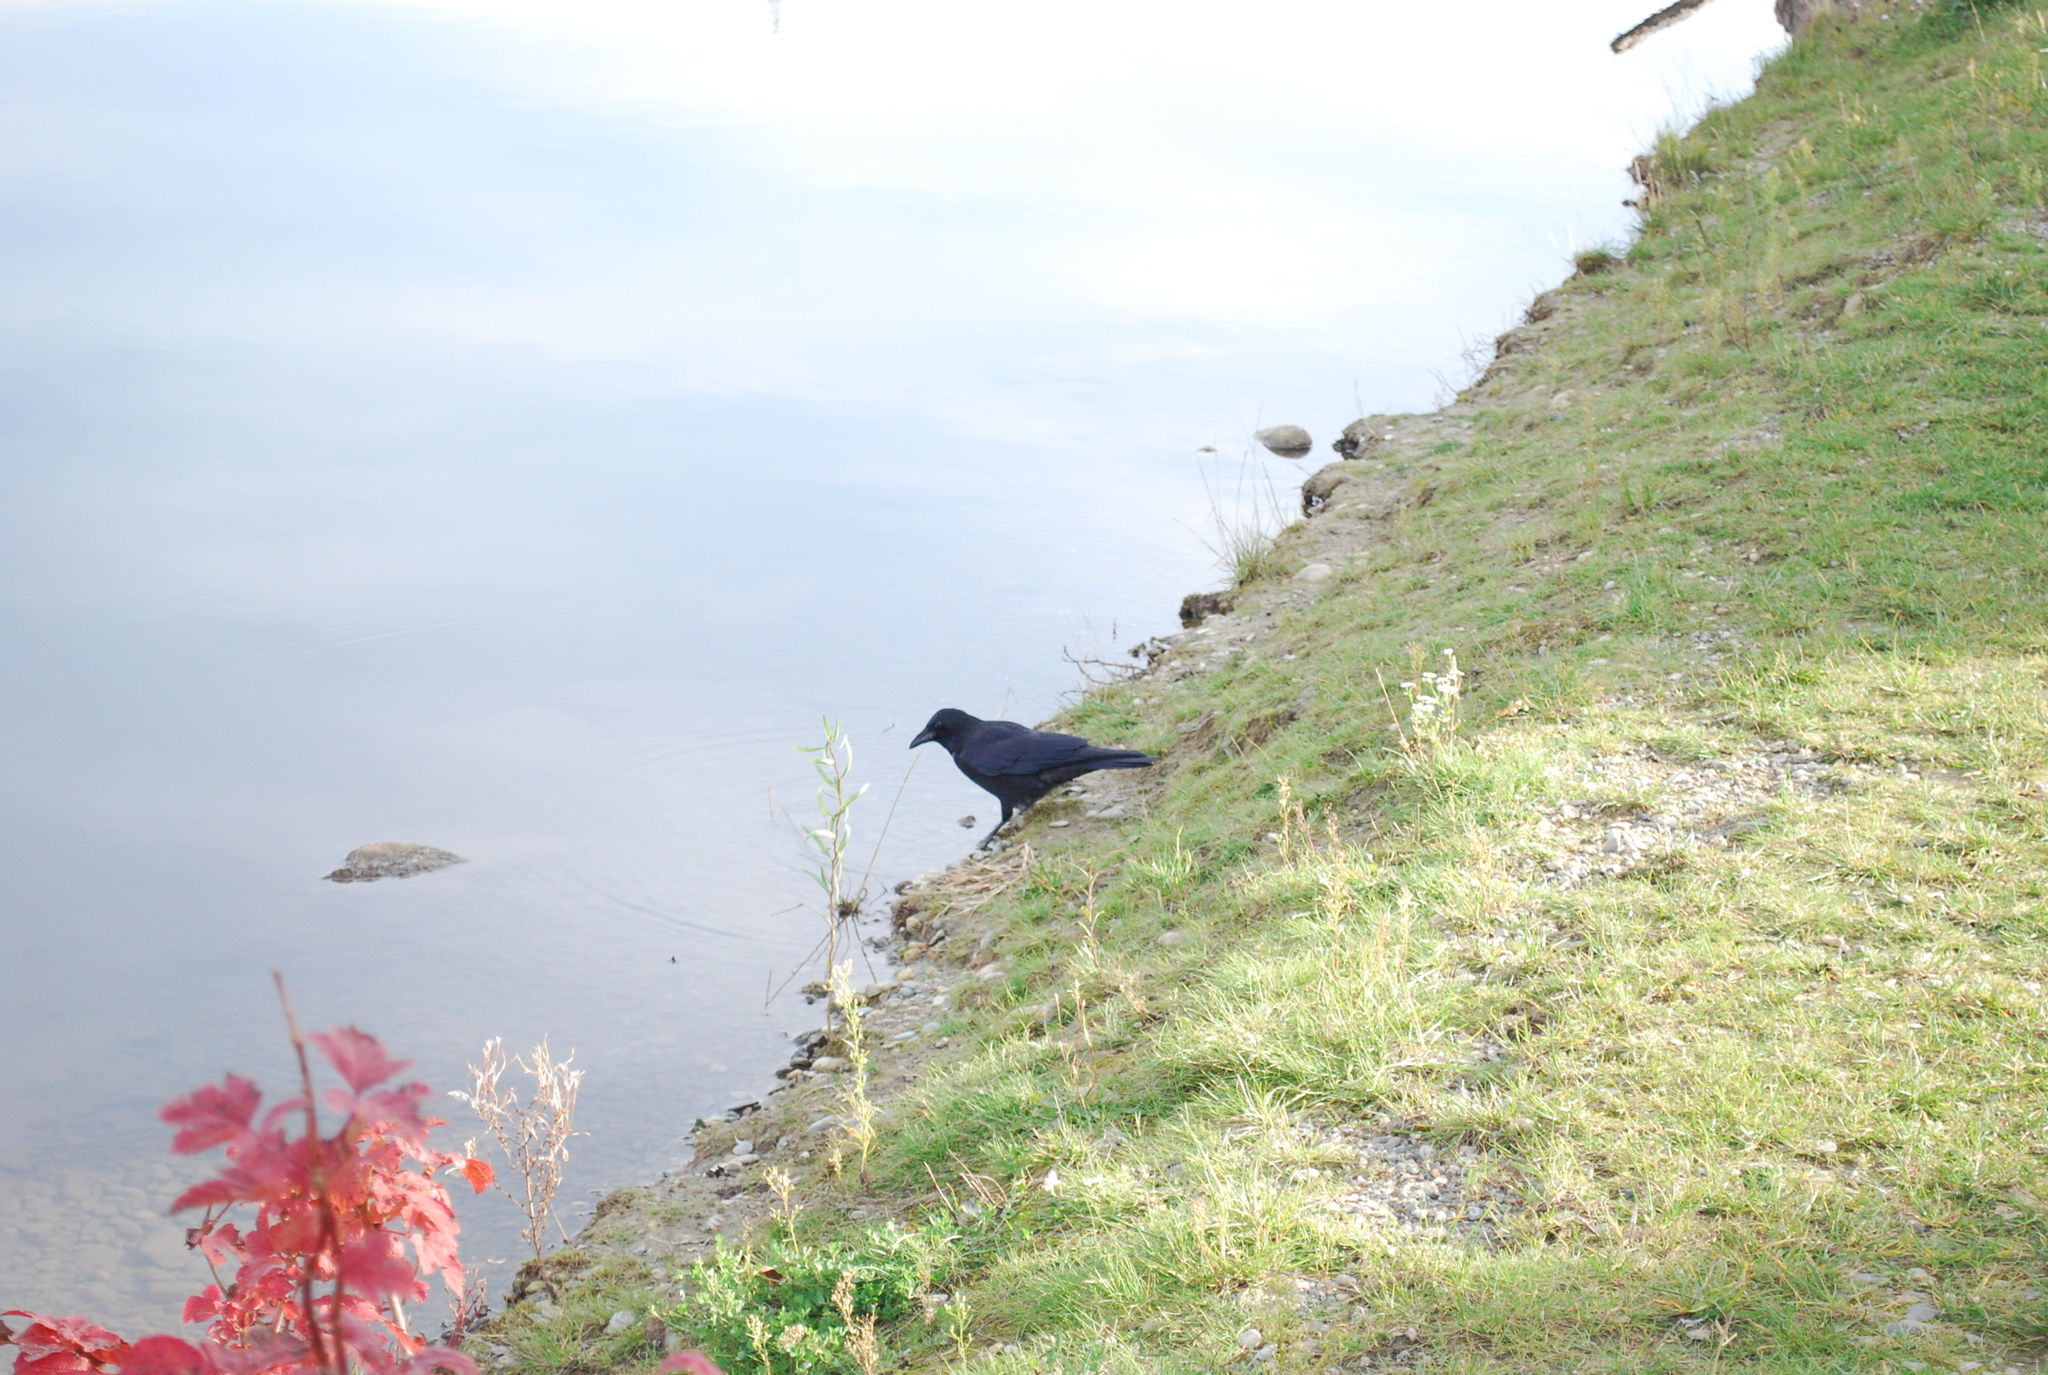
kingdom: Animalia
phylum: Chordata
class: Aves
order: Passeriformes
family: Corvidae
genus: Corvus
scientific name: Corvus corone
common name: Carrion crow
